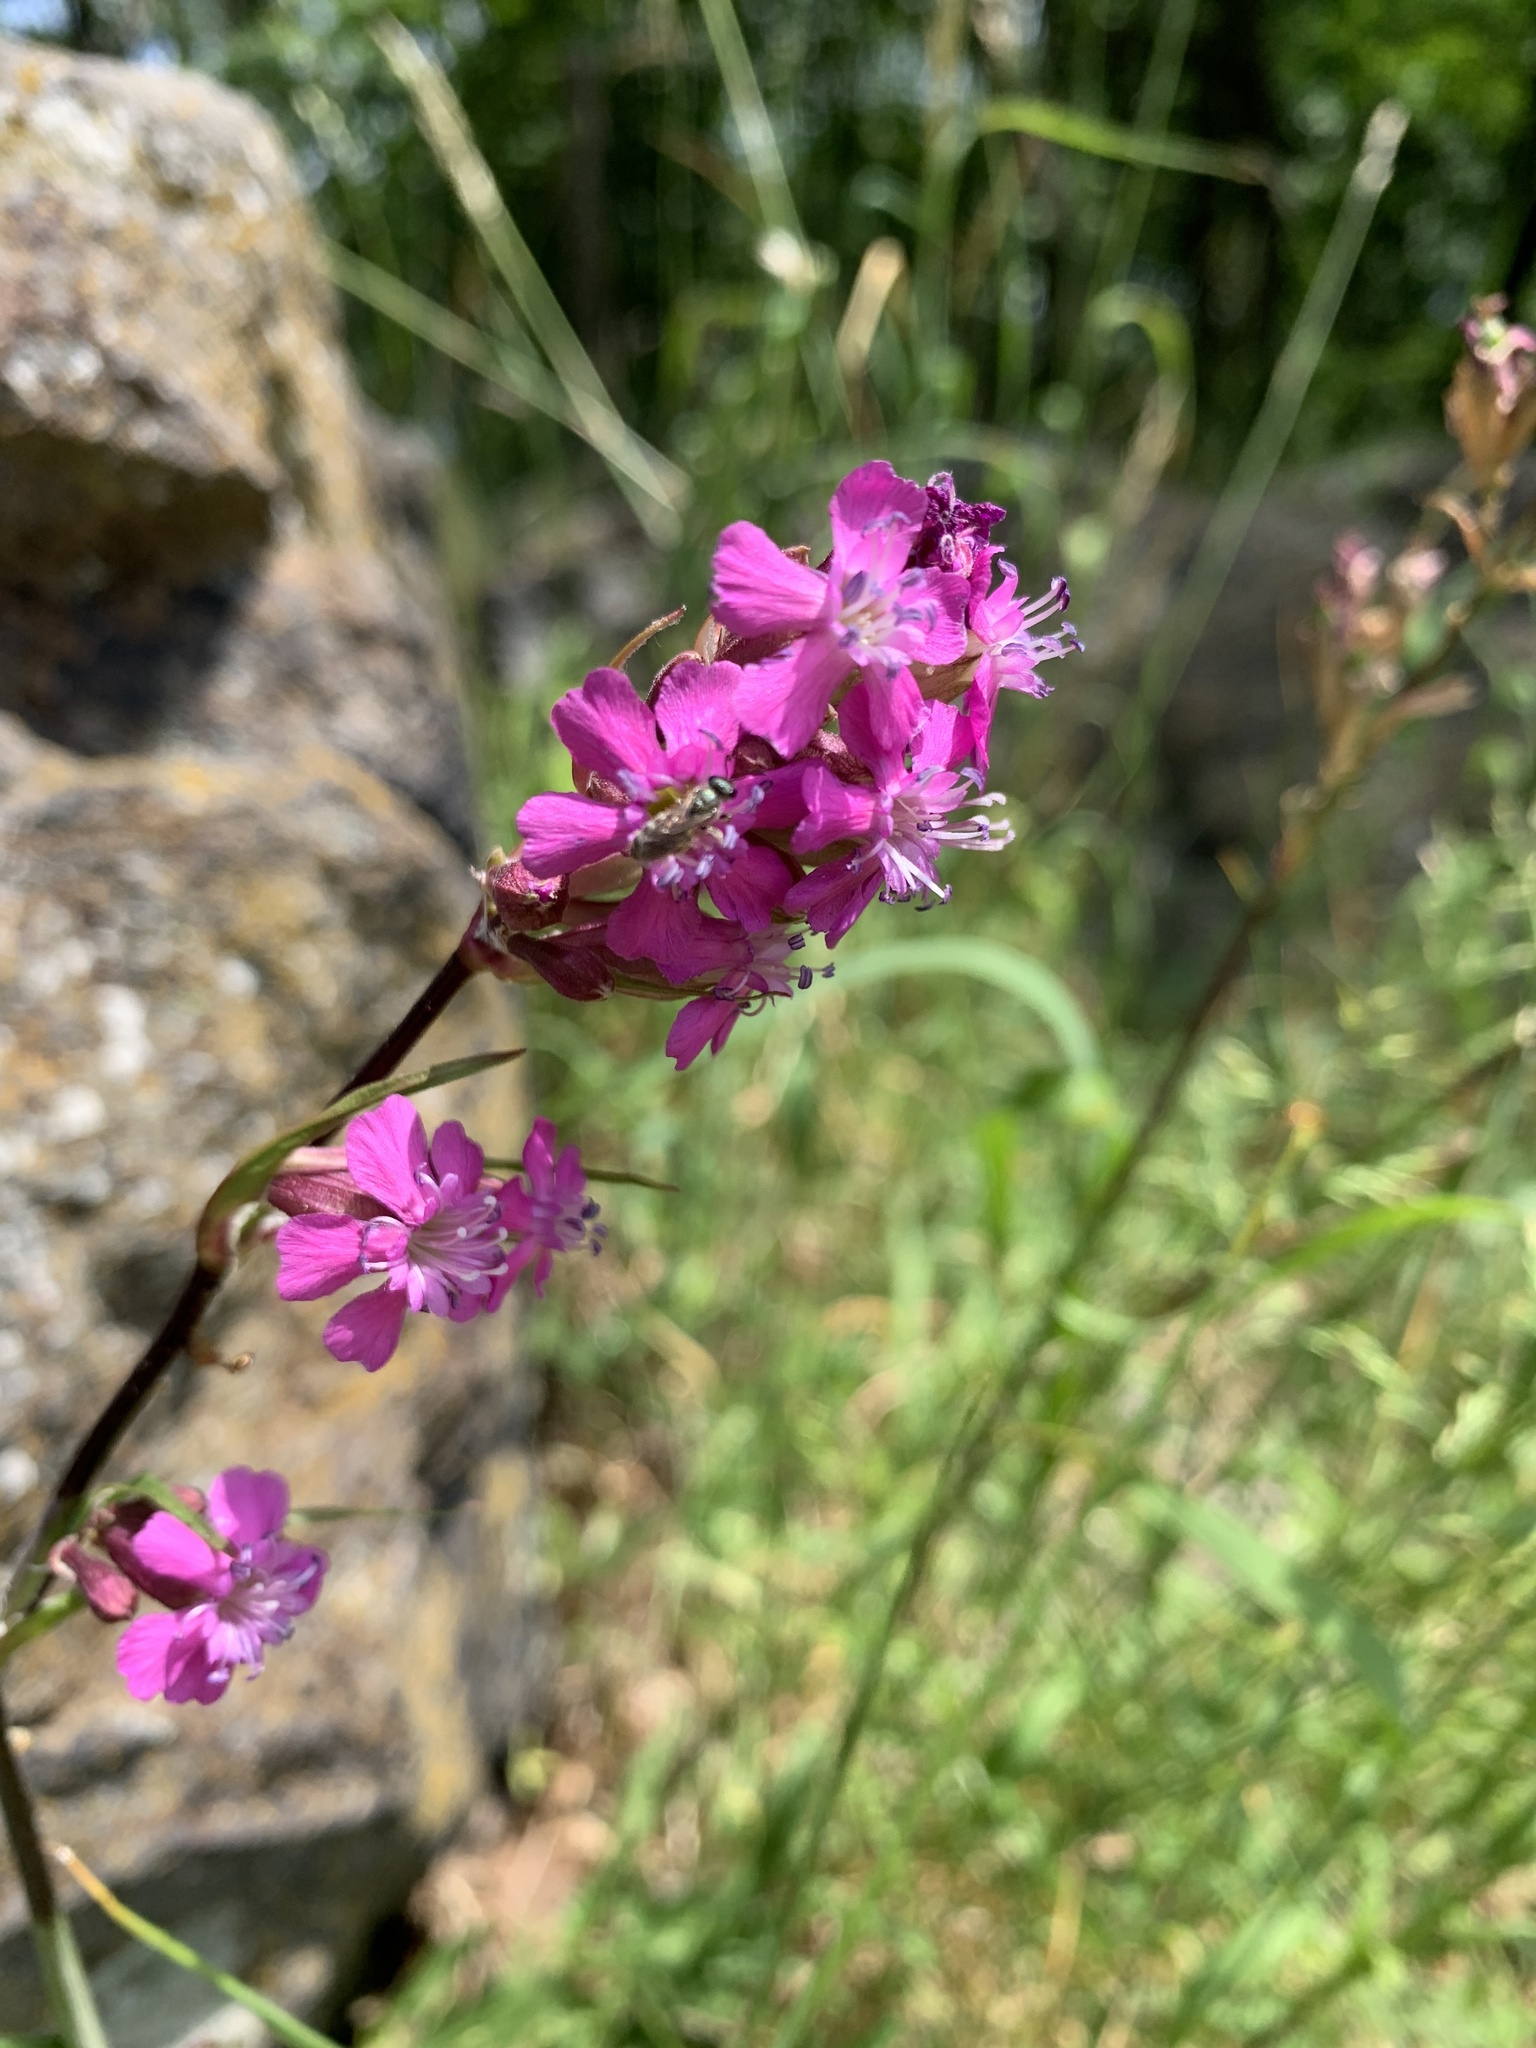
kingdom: Plantae
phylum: Tracheophyta
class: Magnoliopsida
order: Caryophyllales
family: Caryophyllaceae
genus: Viscaria
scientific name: Viscaria vulgaris
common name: Clammy campion
